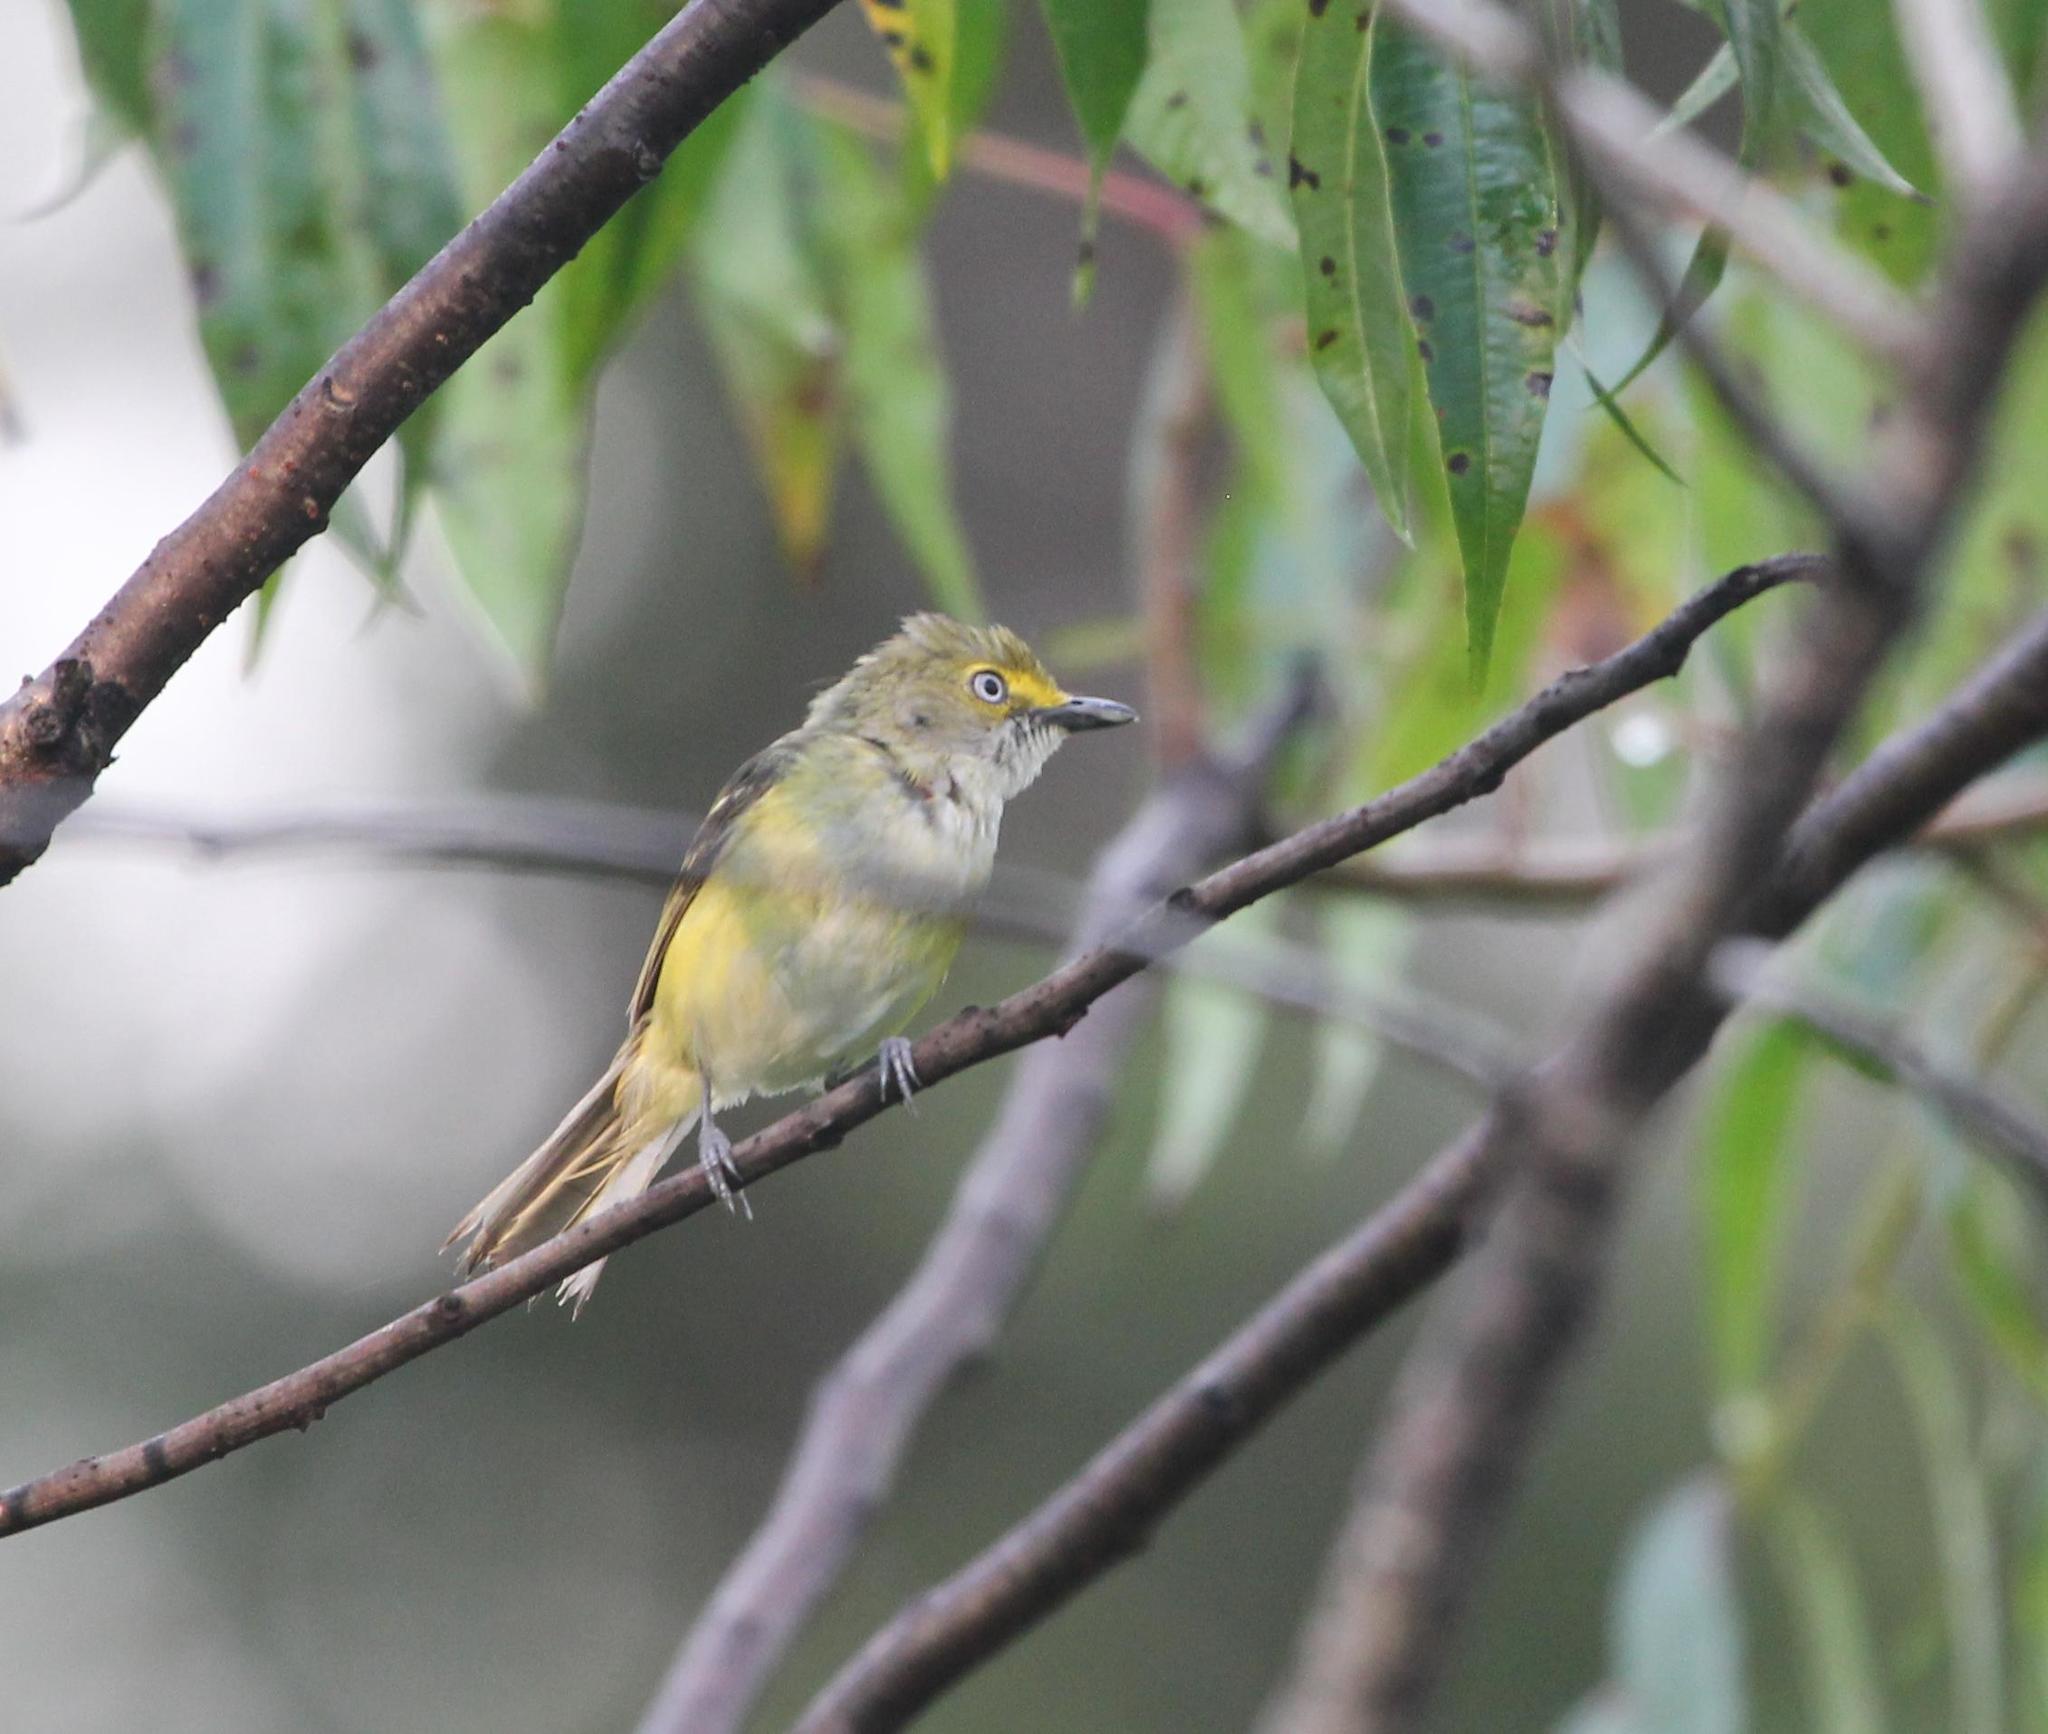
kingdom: Animalia
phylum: Chordata
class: Aves
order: Passeriformes
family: Vireonidae
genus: Vireo
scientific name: Vireo griseus
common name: White-eyed vireo
